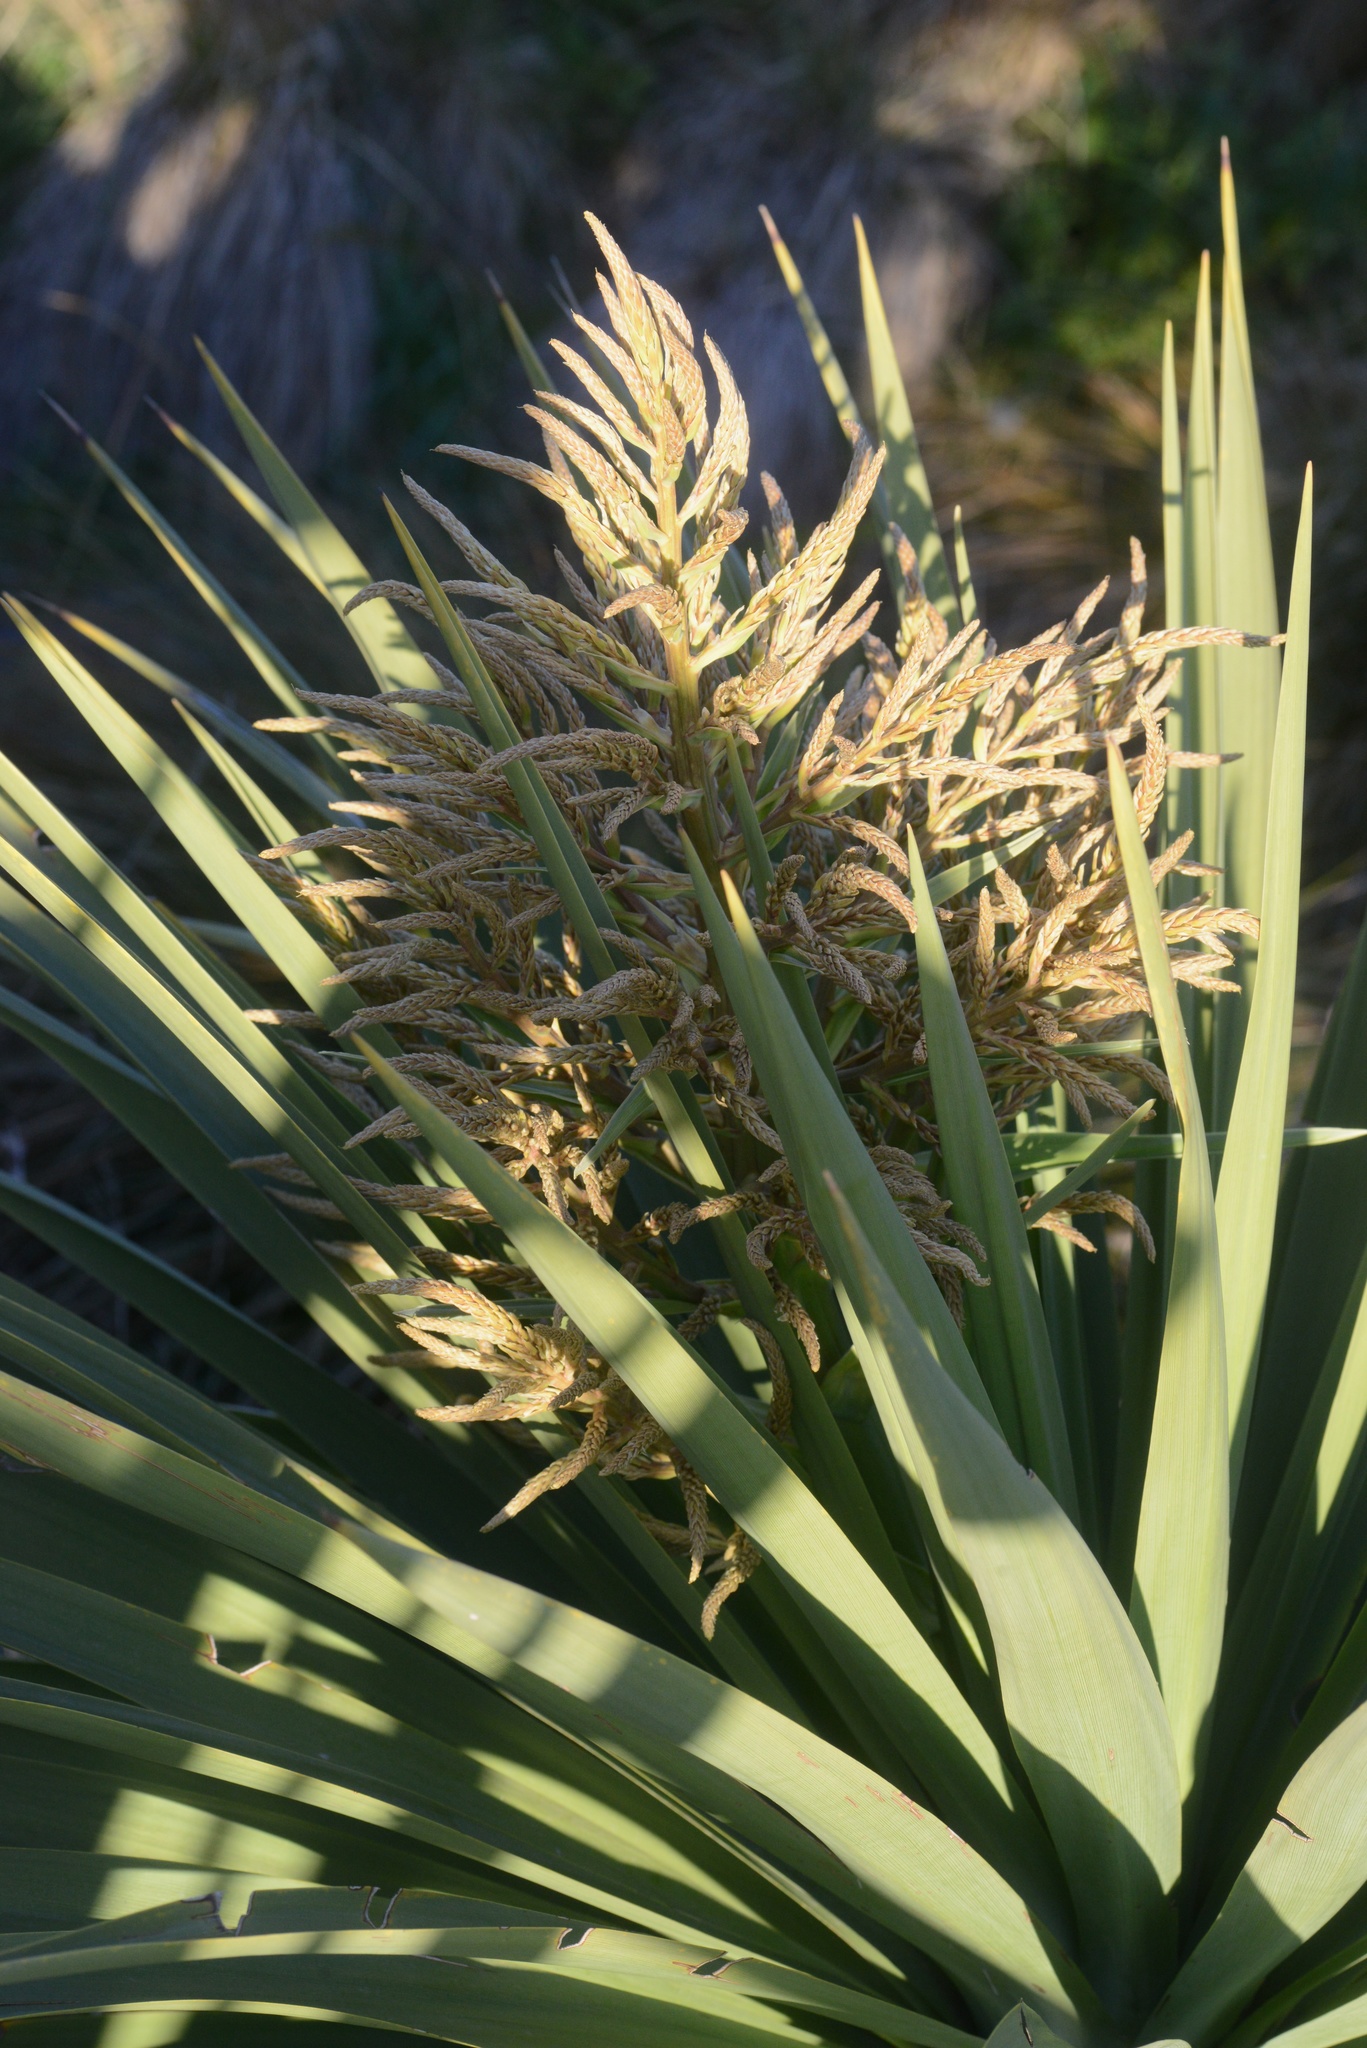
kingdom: Plantae
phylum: Tracheophyta
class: Liliopsida
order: Asparagales
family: Asparagaceae
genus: Cordyline
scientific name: Cordyline australis
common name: Cabbage-palm
